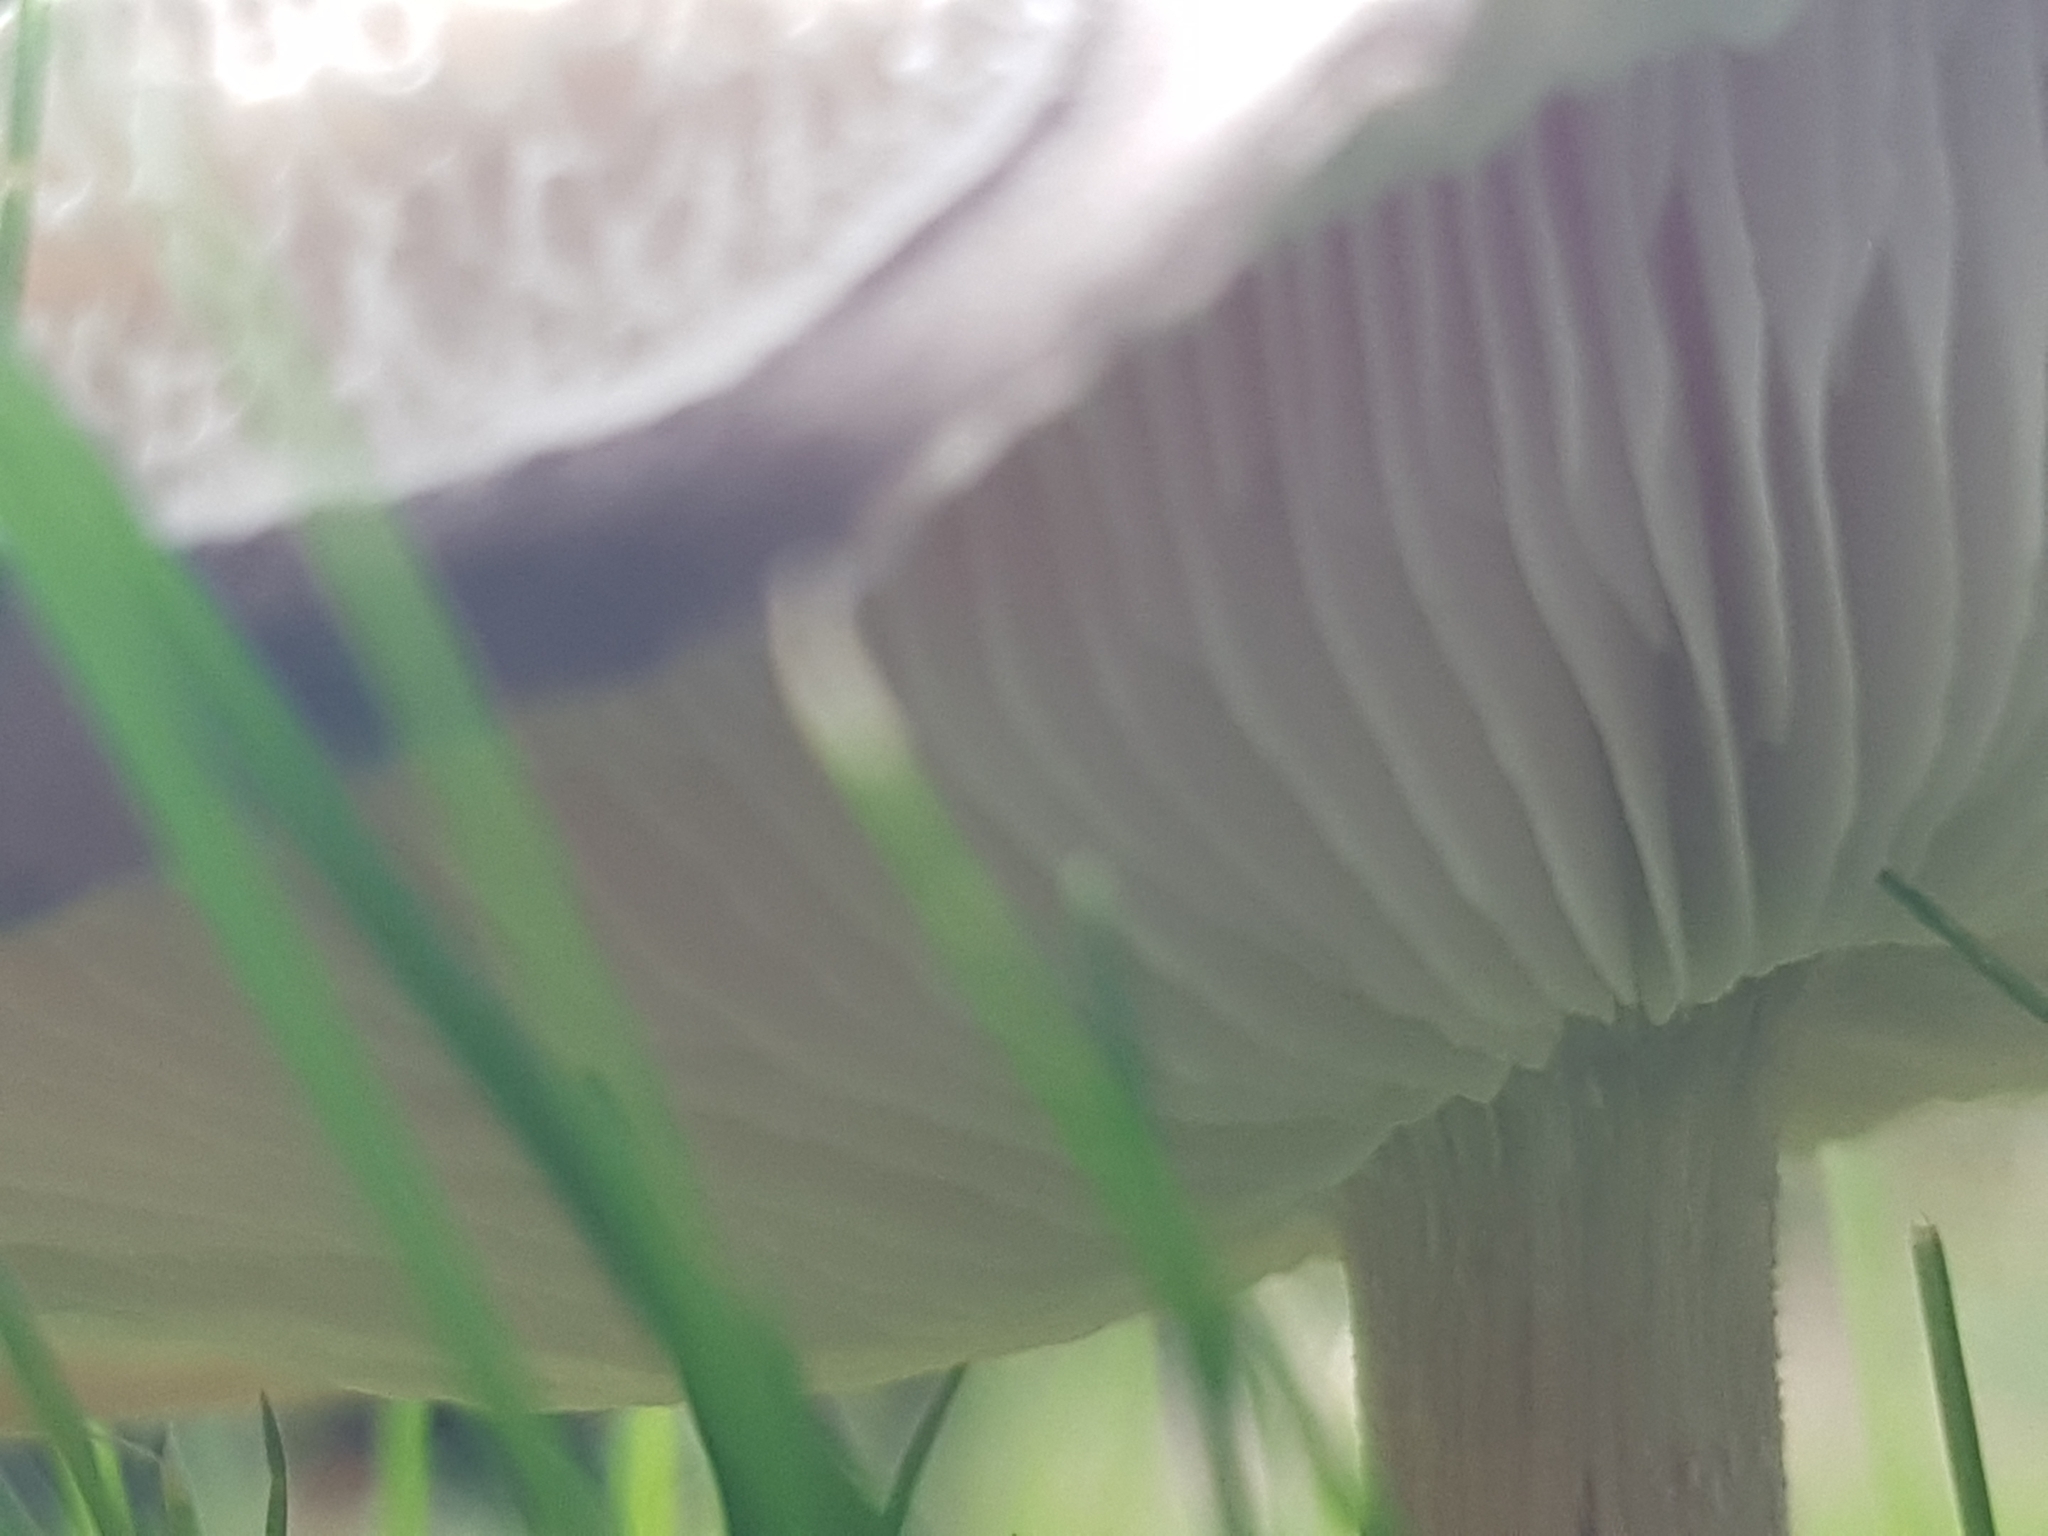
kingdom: Fungi
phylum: Basidiomycota
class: Agaricomycetes
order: Agaricales
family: Tricholomataceae
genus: Melanoleuca
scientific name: Melanoleuca grammopodia
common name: Grooved cavalier
